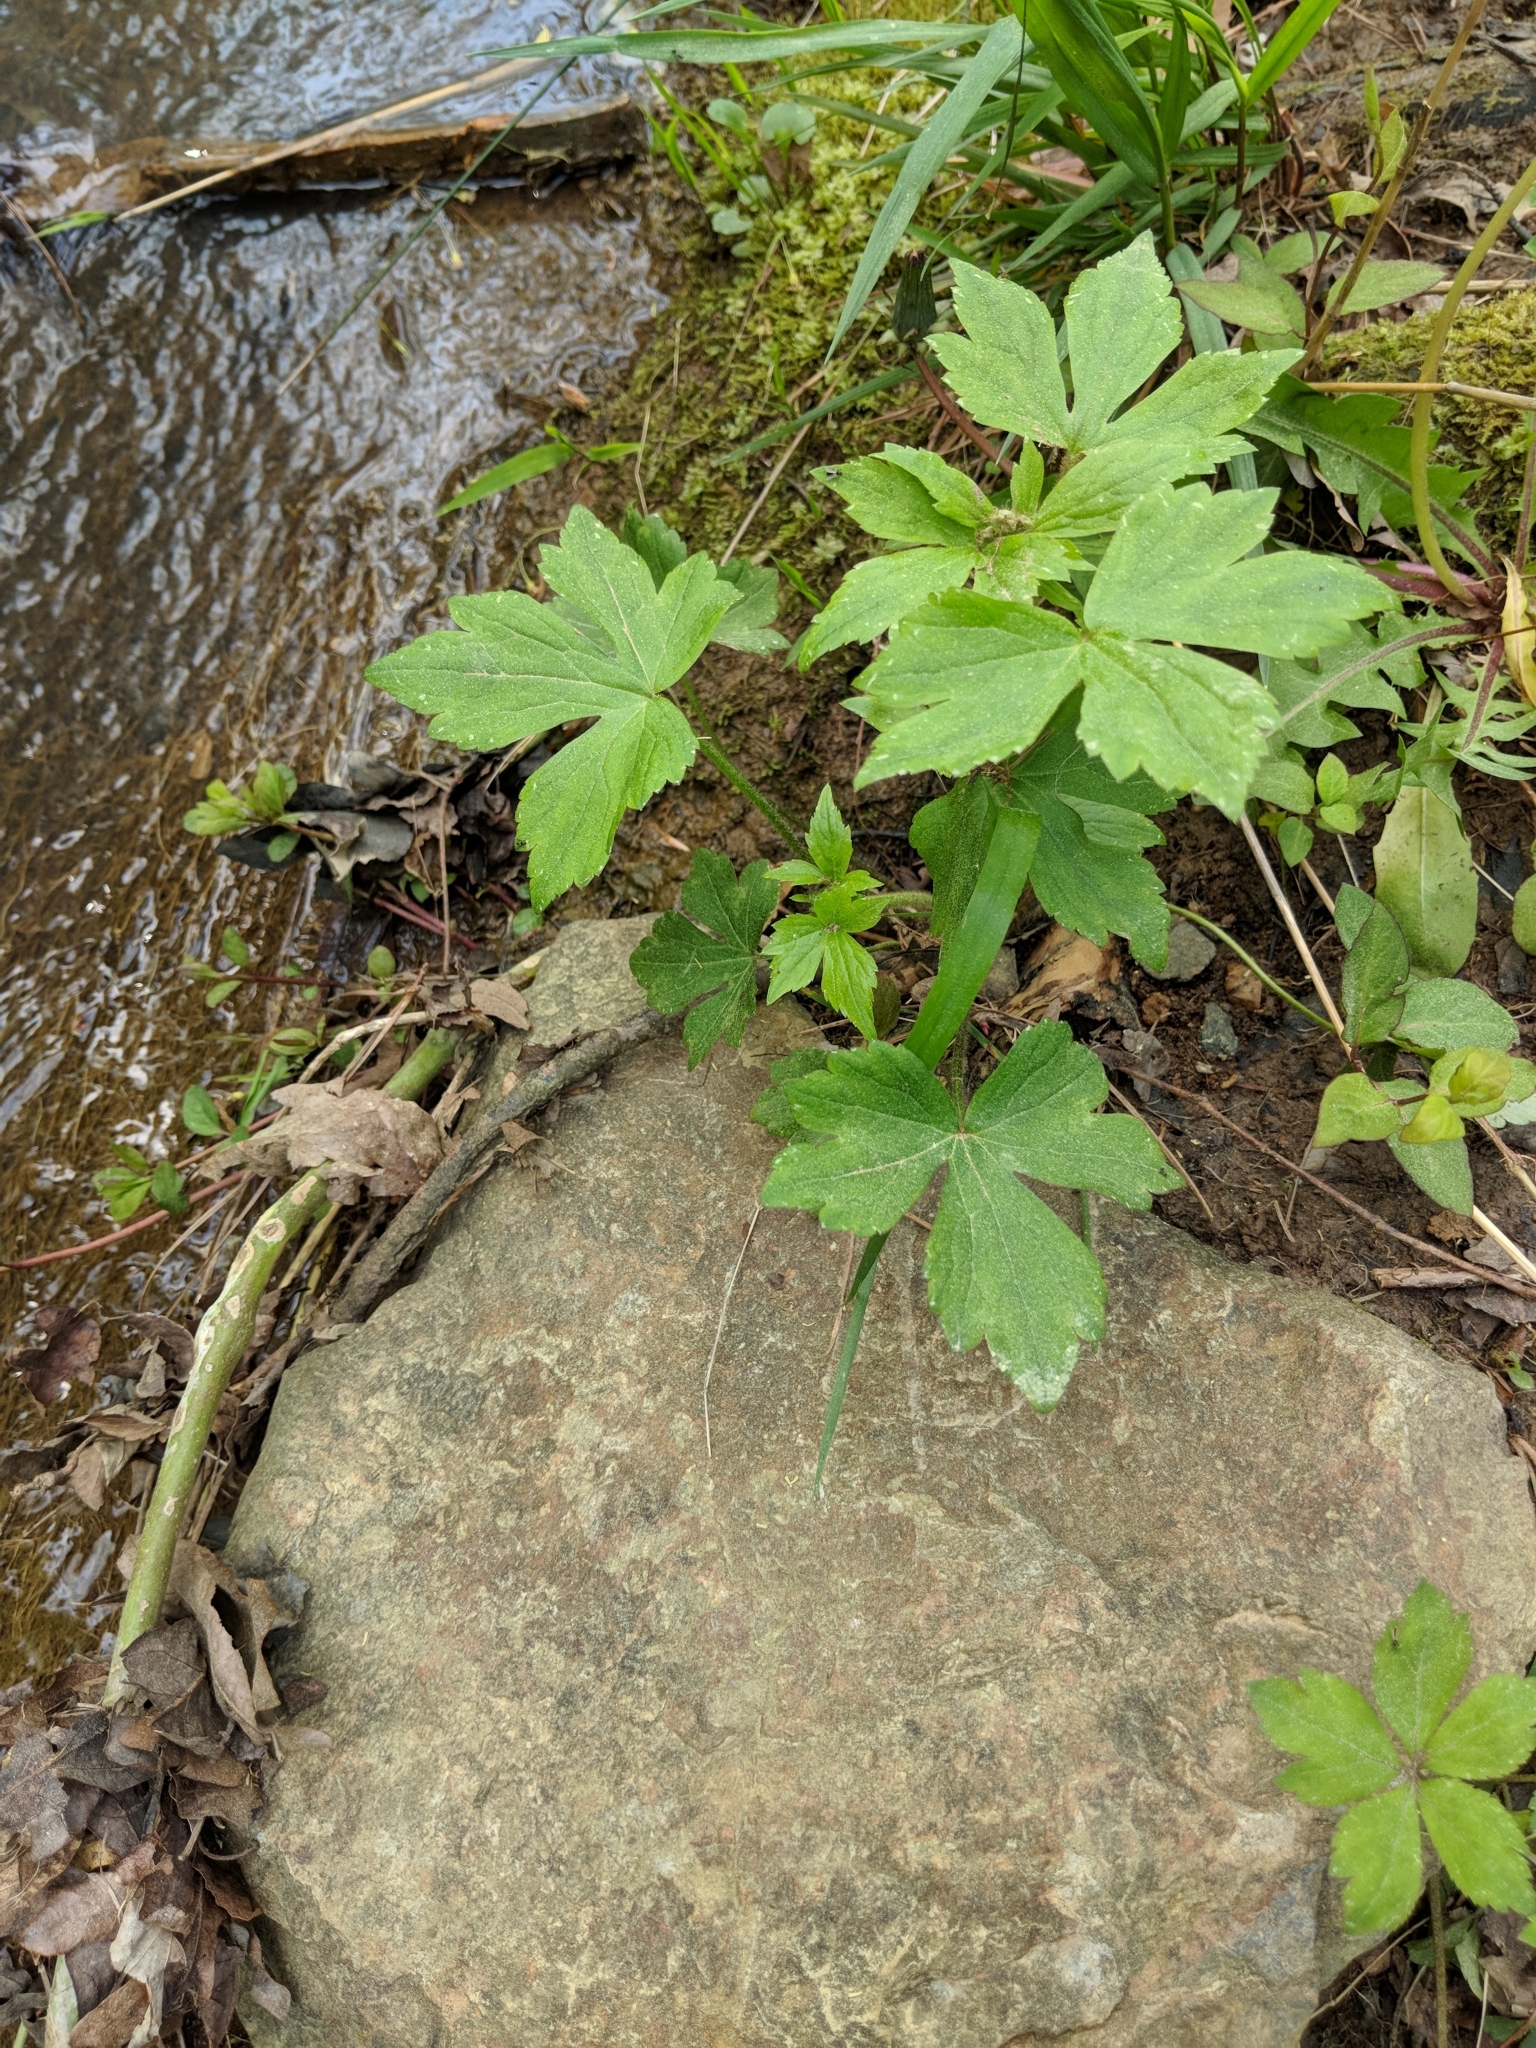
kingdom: Plantae
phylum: Tracheophyta
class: Magnoliopsida
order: Ranunculales
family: Ranunculaceae
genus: Ranunculus
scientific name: Ranunculus recurvatus
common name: Blisterwort
